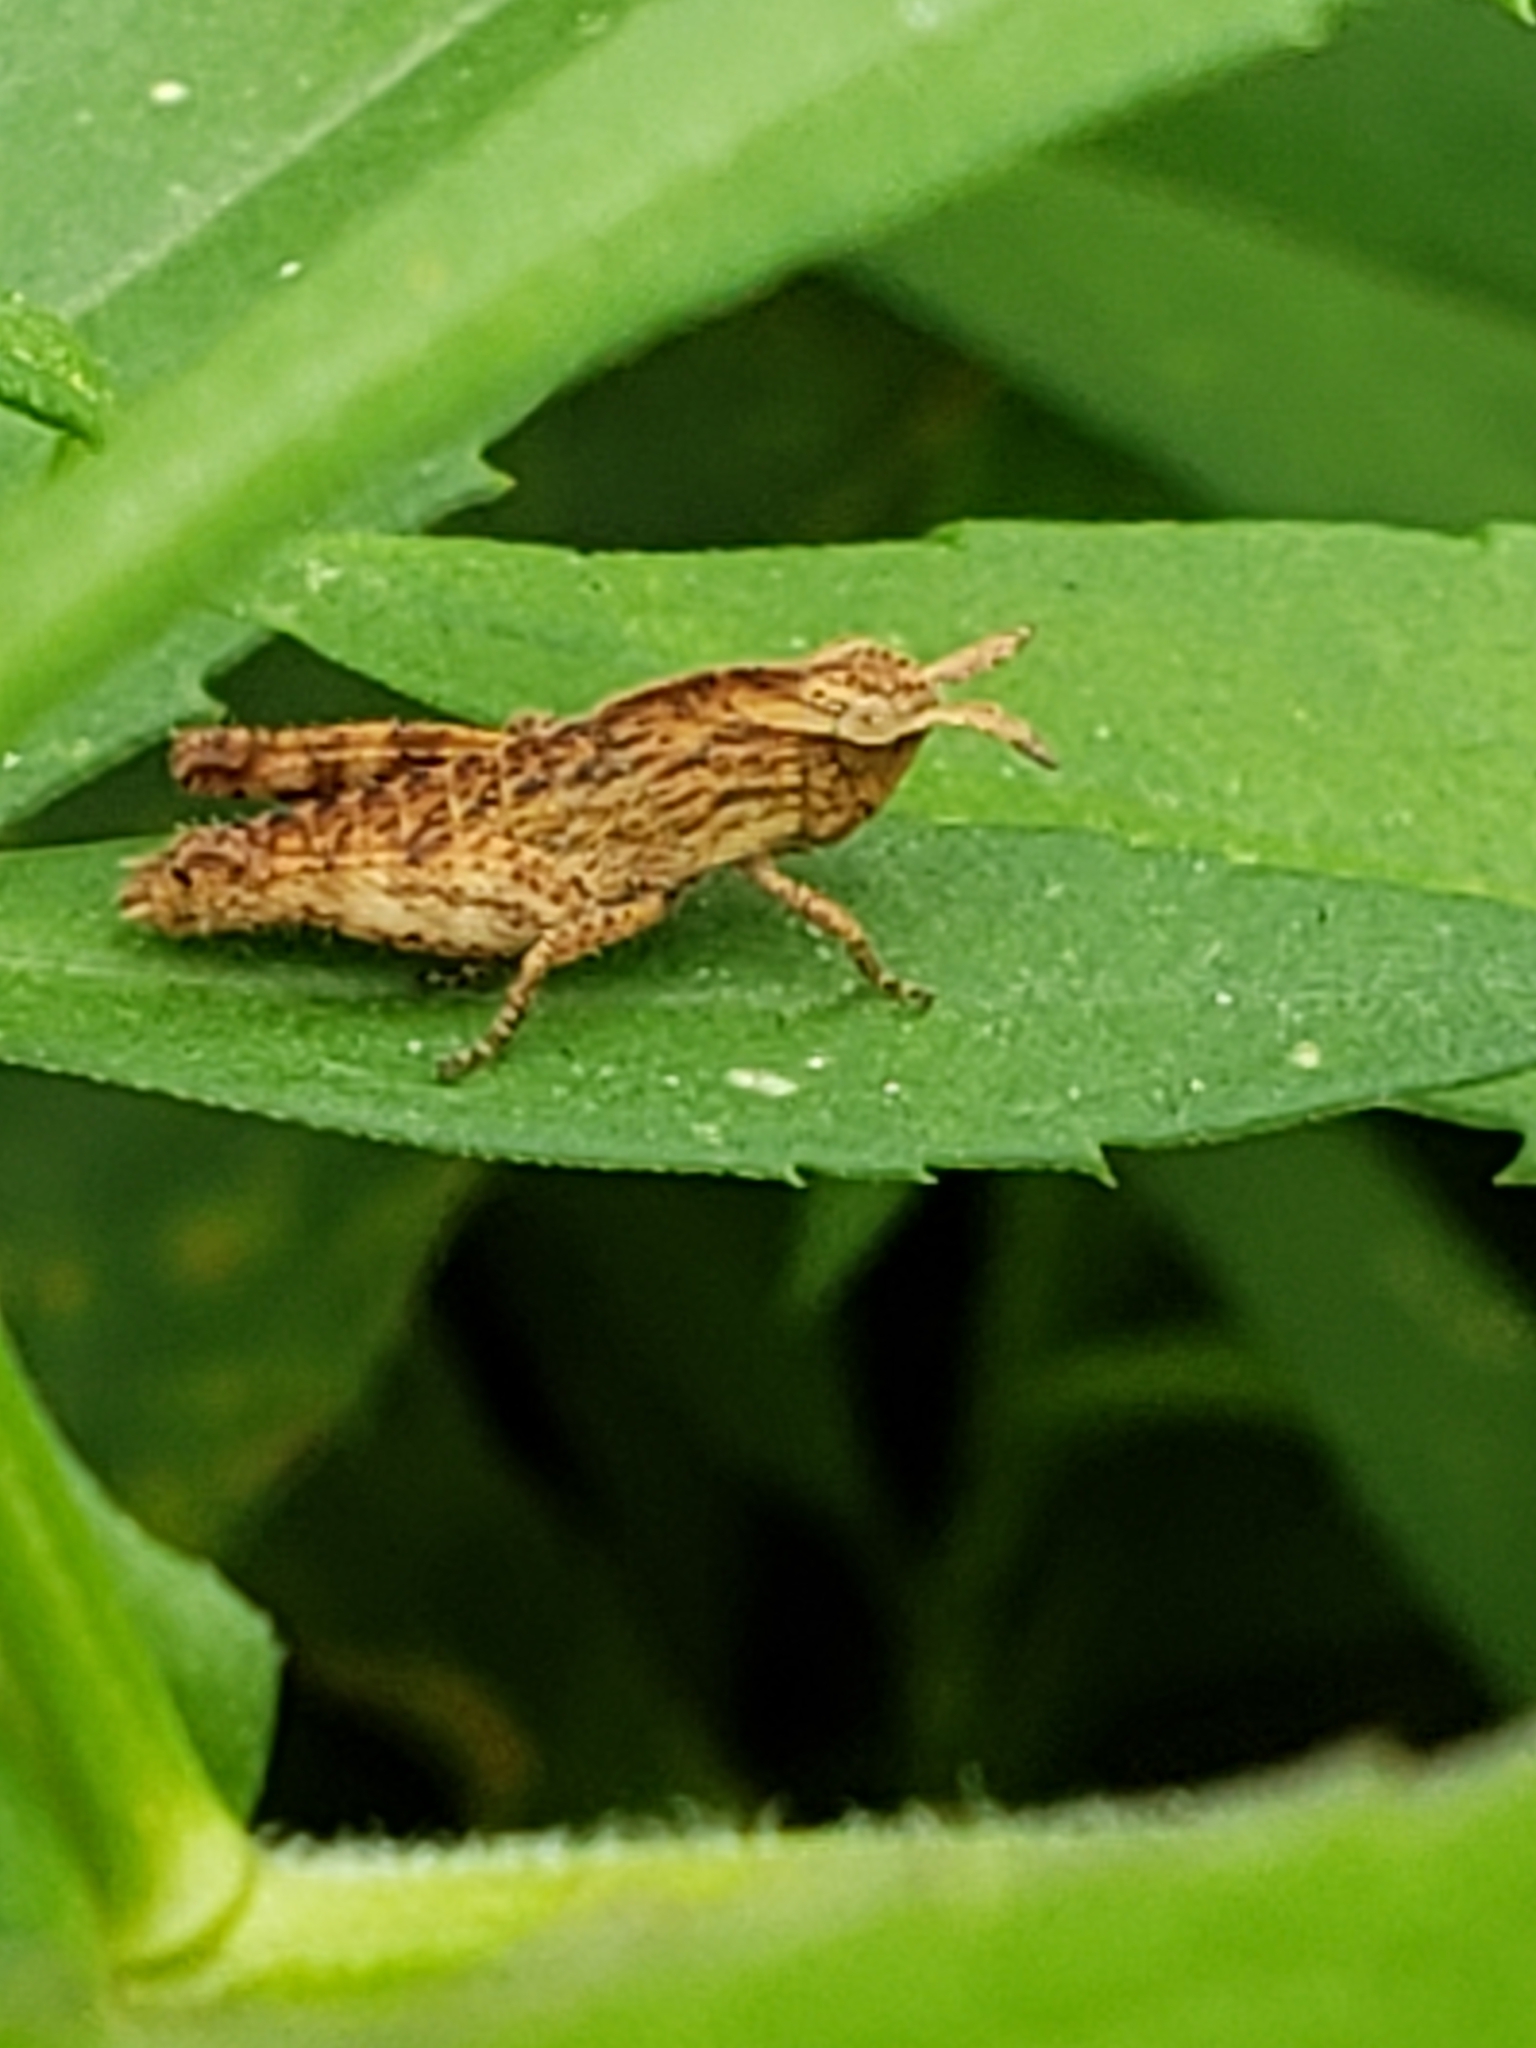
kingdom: Animalia
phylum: Arthropoda
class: Insecta
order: Orthoptera
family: Acrididae
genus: Chortophaga
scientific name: Chortophaga viridifasciata
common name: Green-striped grasshopper
